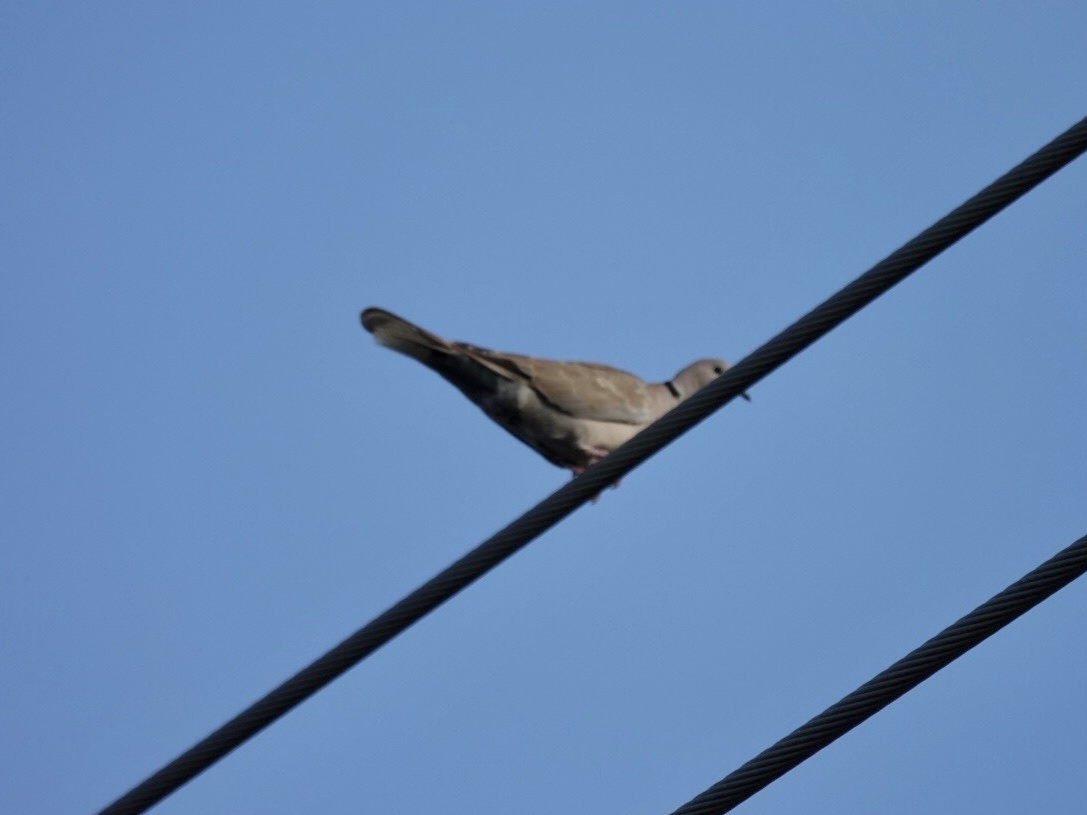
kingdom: Animalia
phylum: Chordata
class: Aves
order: Columbiformes
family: Columbidae
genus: Streptopelia
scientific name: Streptopelia decaocto
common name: Eurasian collared dove
